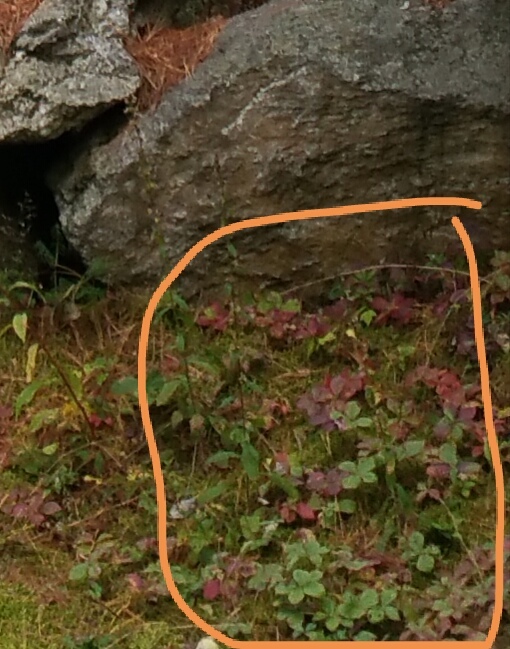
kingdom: Plantae
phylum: Tracheophyta
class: Magnoliopsida
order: Cornales
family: Cornaceae
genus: Cornus
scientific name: Cornus canadensis
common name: Creeping dogwood
